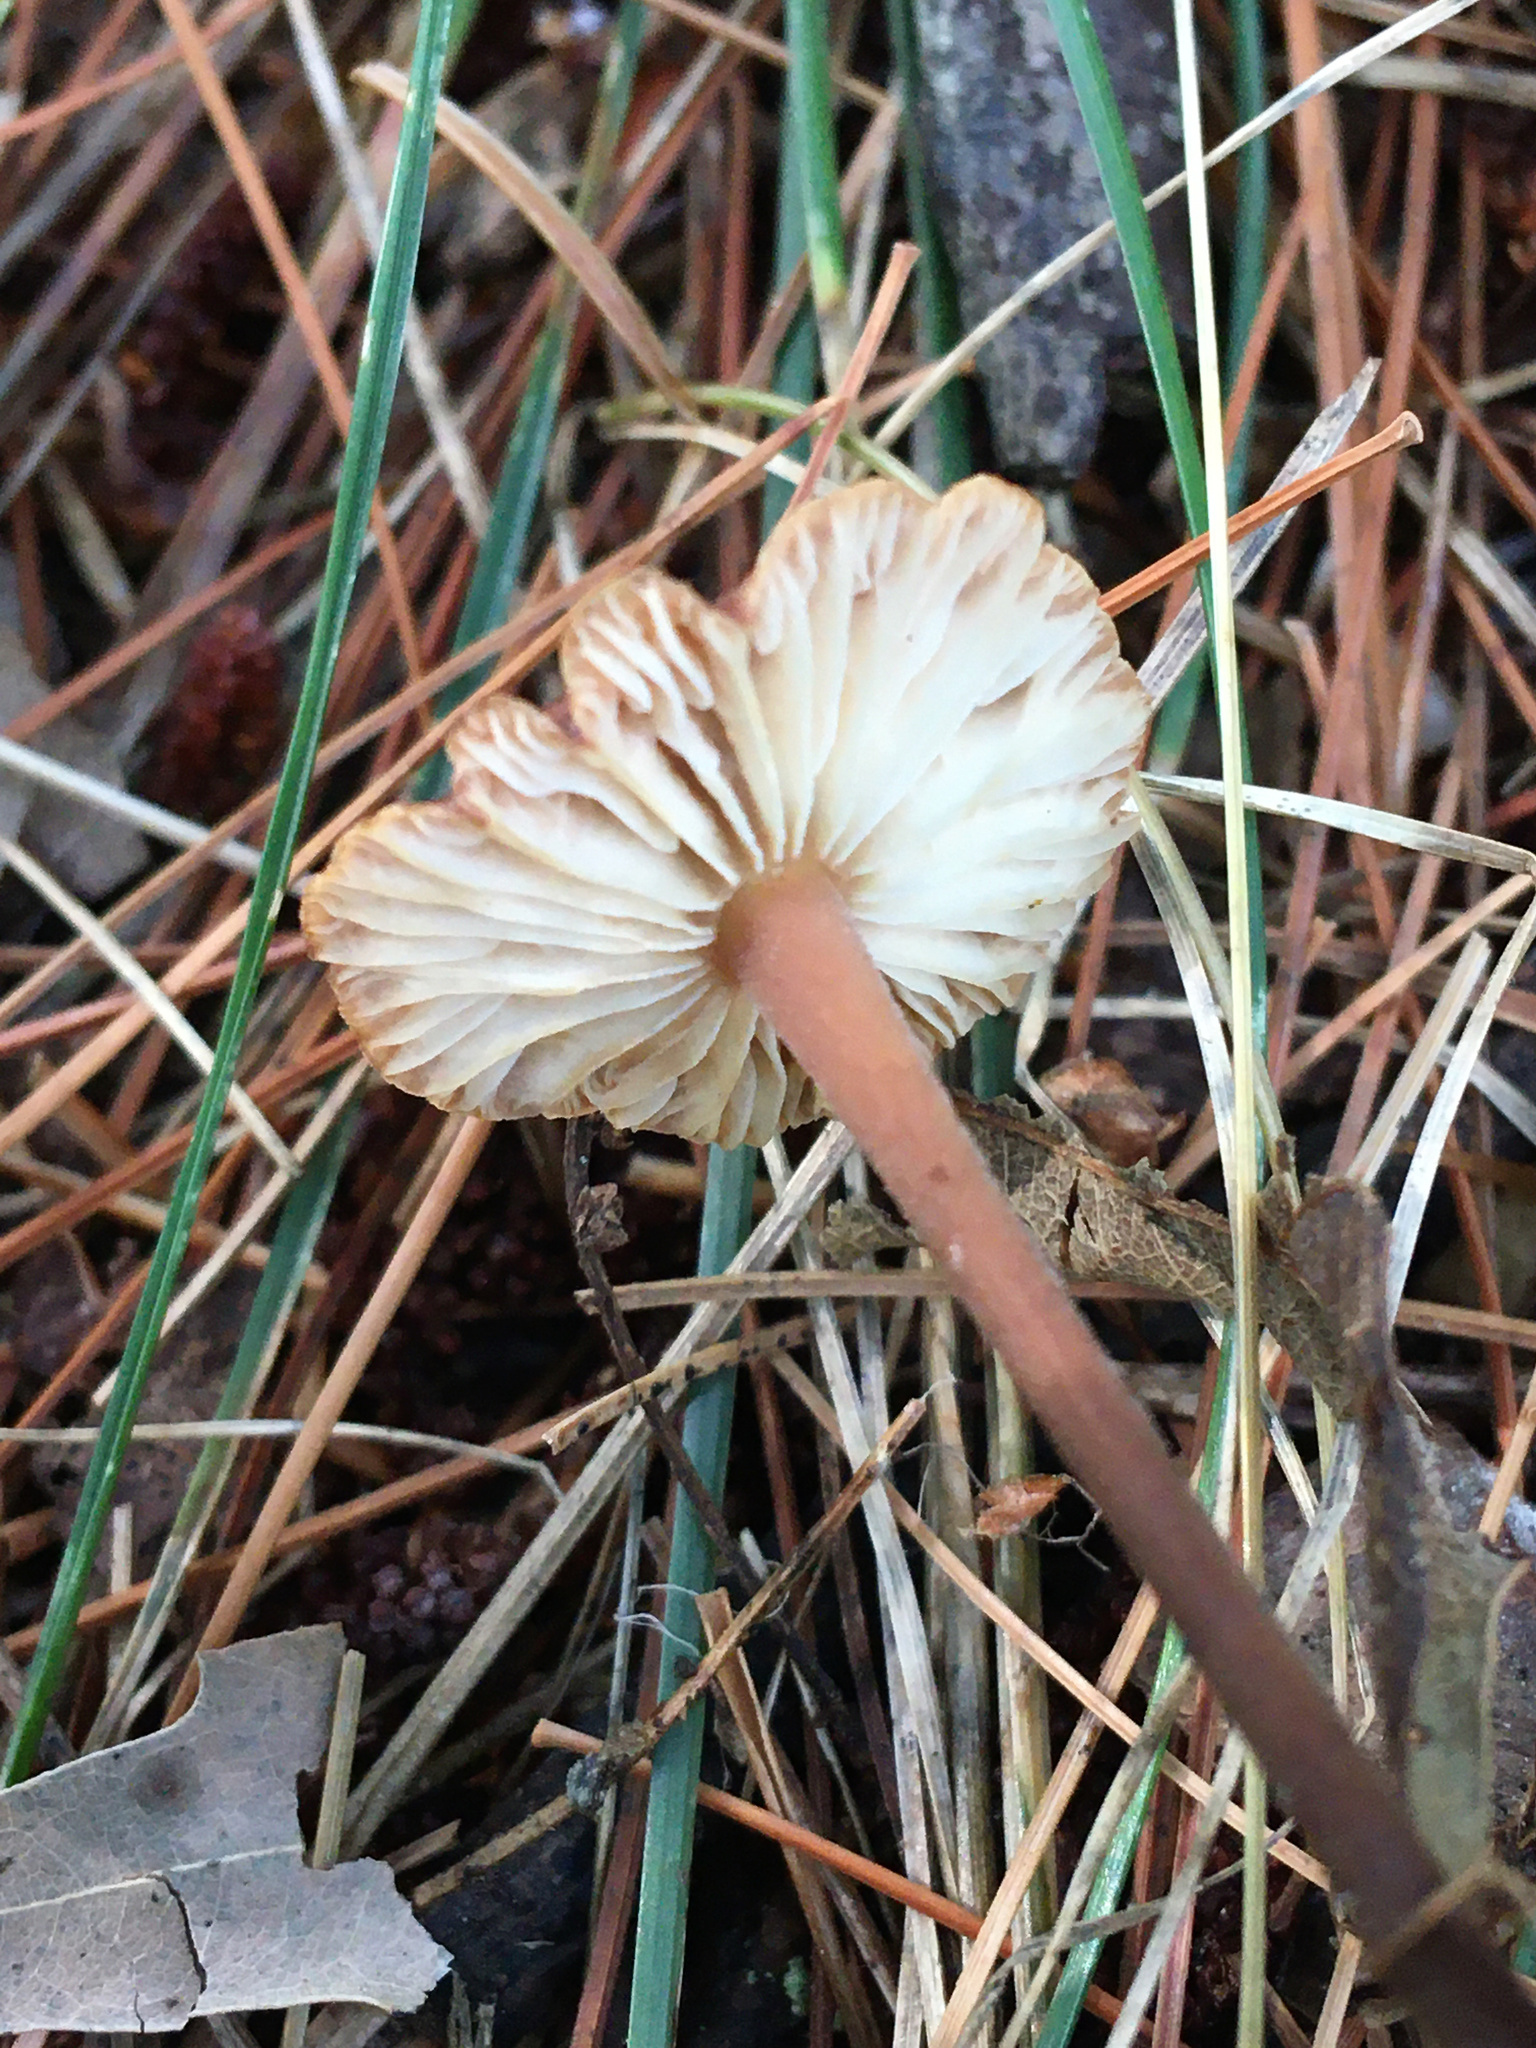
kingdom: Fungi
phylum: Basidiomycota
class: Agaricomycetes
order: Agaricales
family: Omphalotaceae
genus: Collybiopsis
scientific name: Collybiopsis biformis
